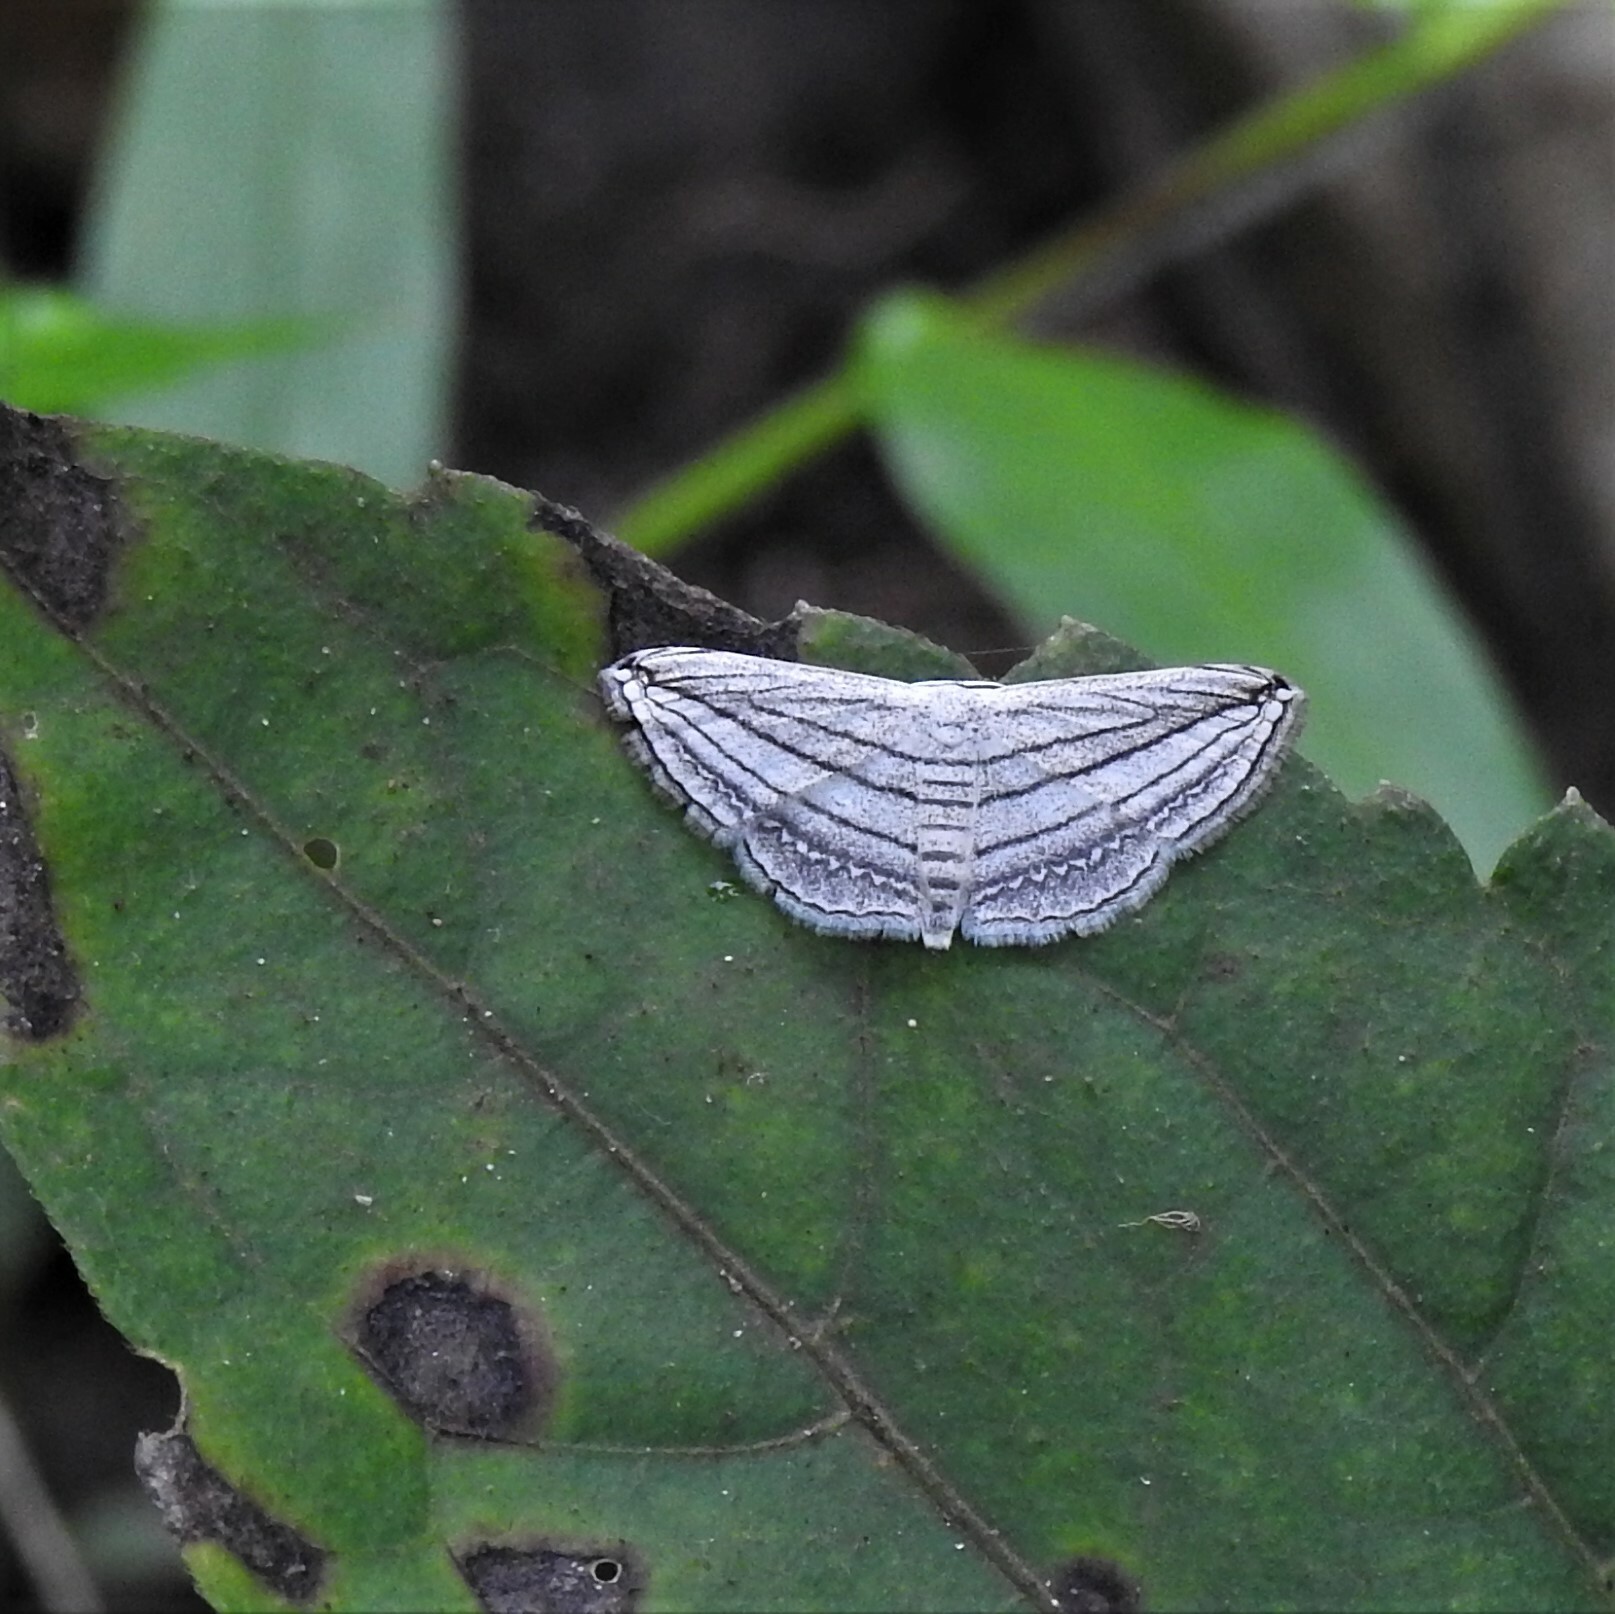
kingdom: Animalia
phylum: Arthropoda
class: Insecta
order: Lepidoptera
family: Geometridae
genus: Scopula
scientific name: Scopula opicata
